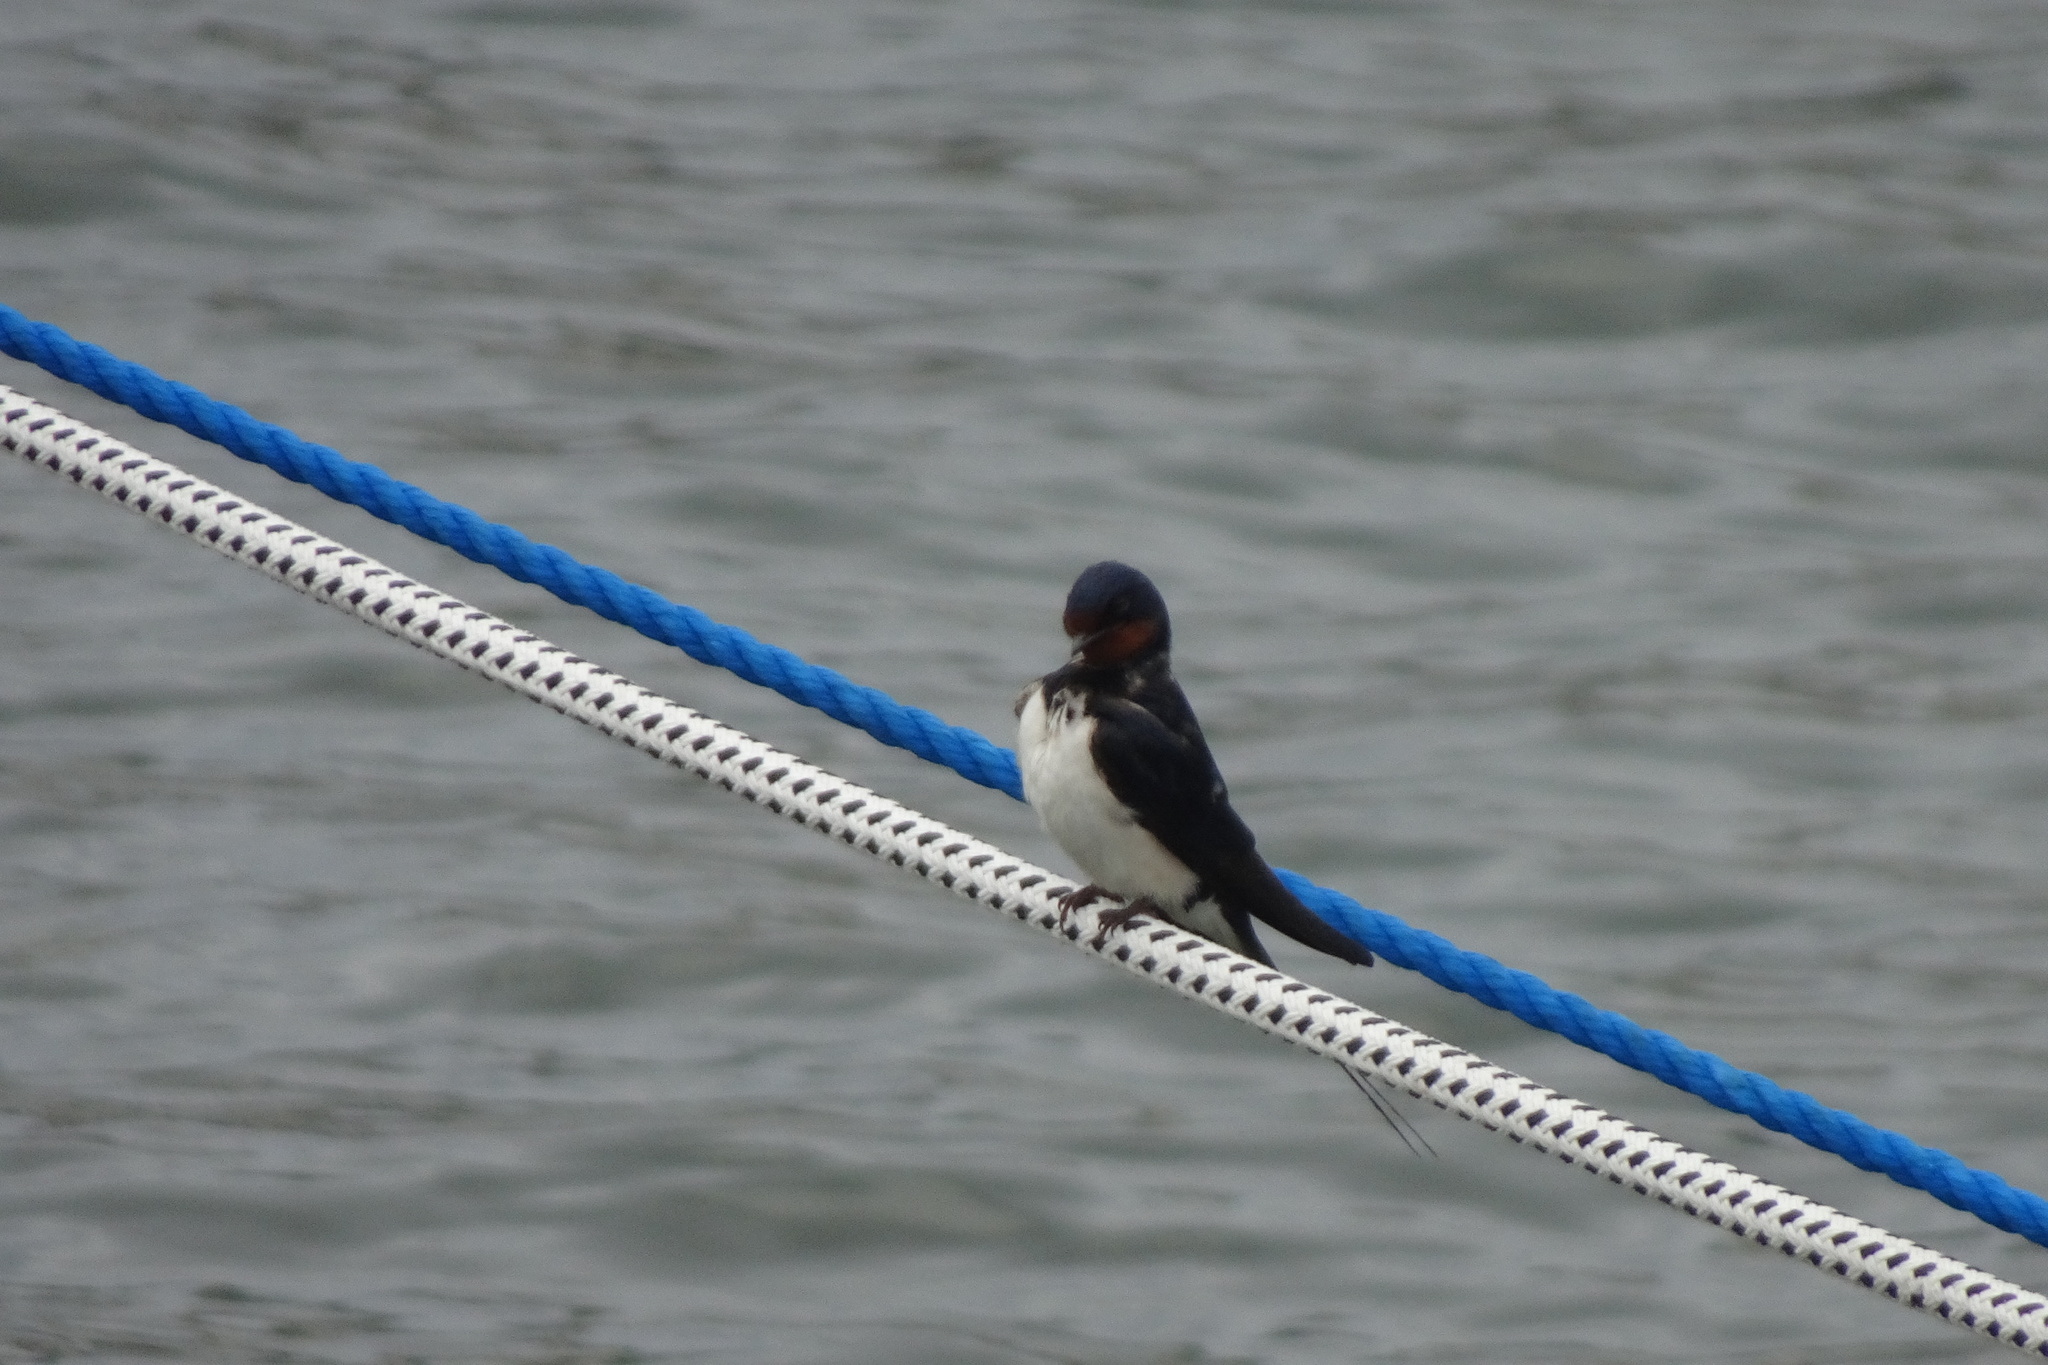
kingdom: Animalia
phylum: Chordata
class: Aves
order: Passeriformes
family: Hirundinidae
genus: Hirundo
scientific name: Hirundo rustica
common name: Barn swallow
